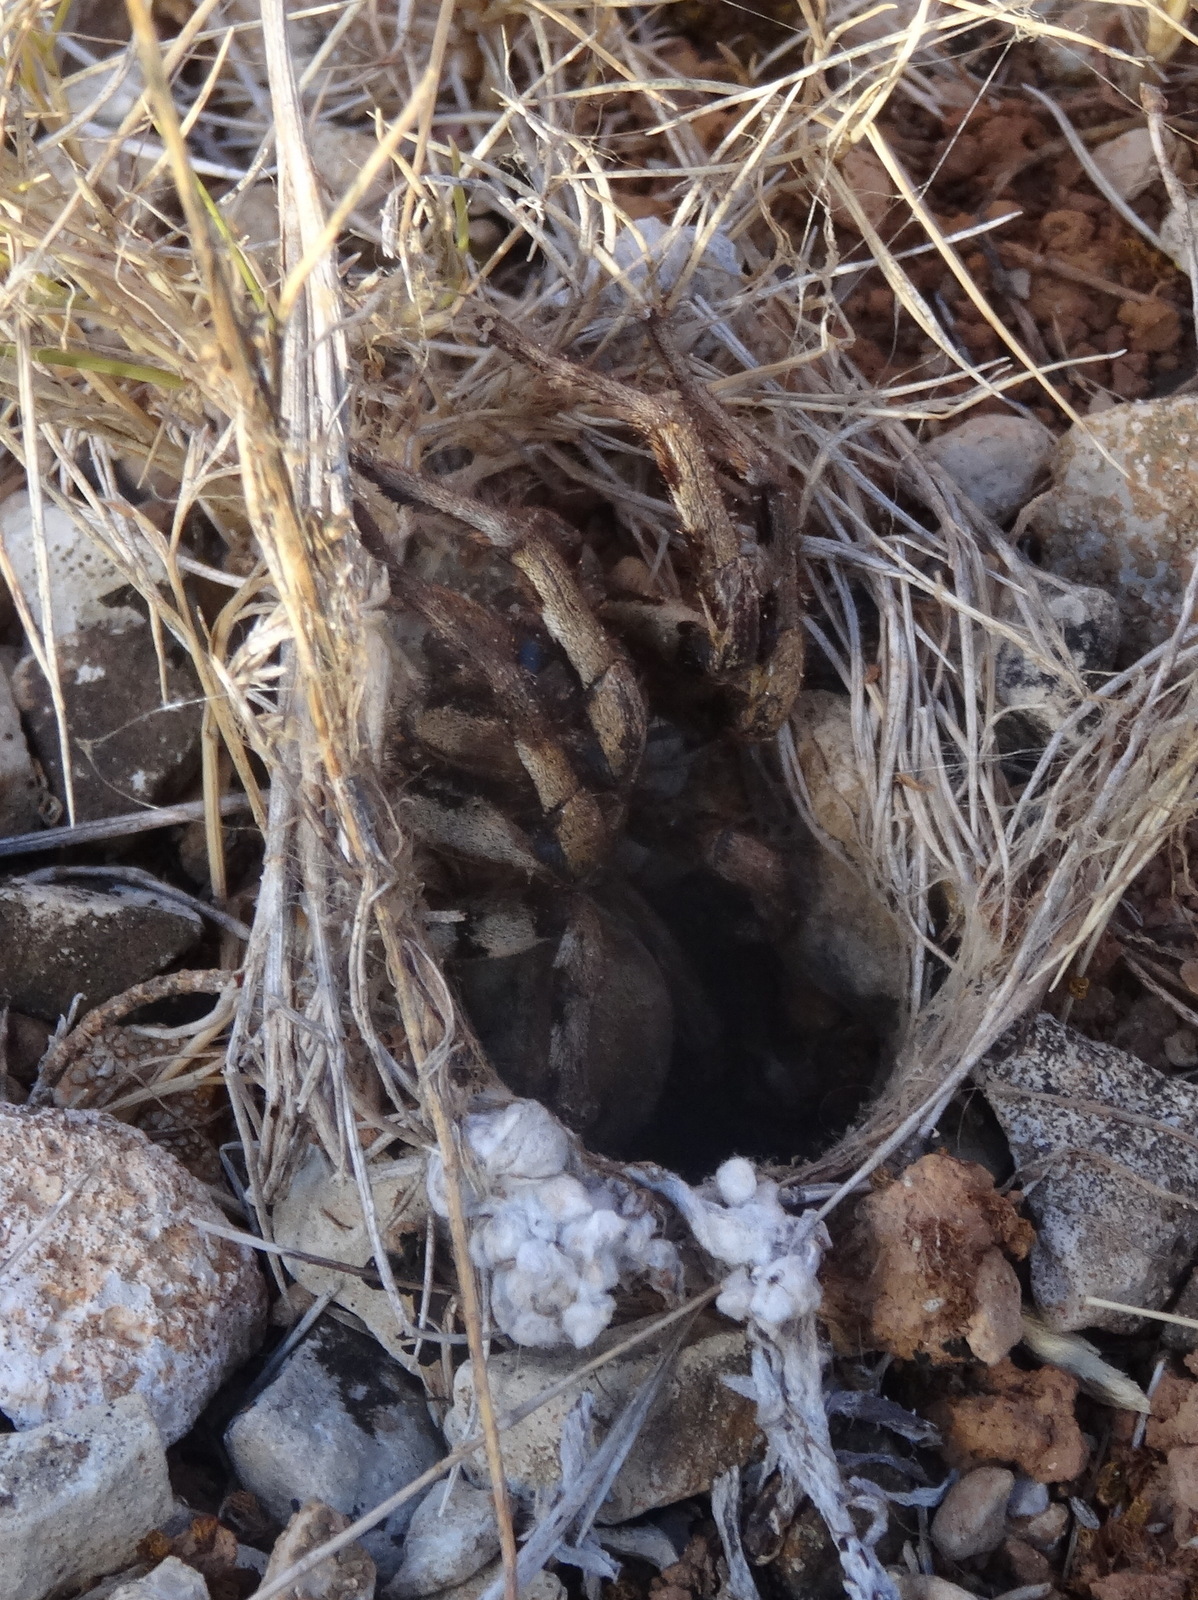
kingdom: Animalia
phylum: Arthropoda
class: Arachnida
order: Araneae
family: Lycosidae
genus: Lycosa
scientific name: Lycosa tarantula
